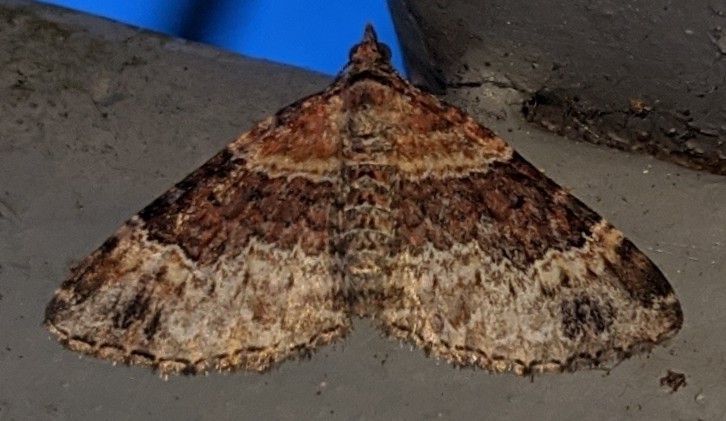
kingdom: Animalia
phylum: Arthropoda
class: Insecta
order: Lepidoptera
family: Geometridae
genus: Xanthorhoe
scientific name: Xanthorhoe ferrugata
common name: Dark-barred twin-spot carpet
